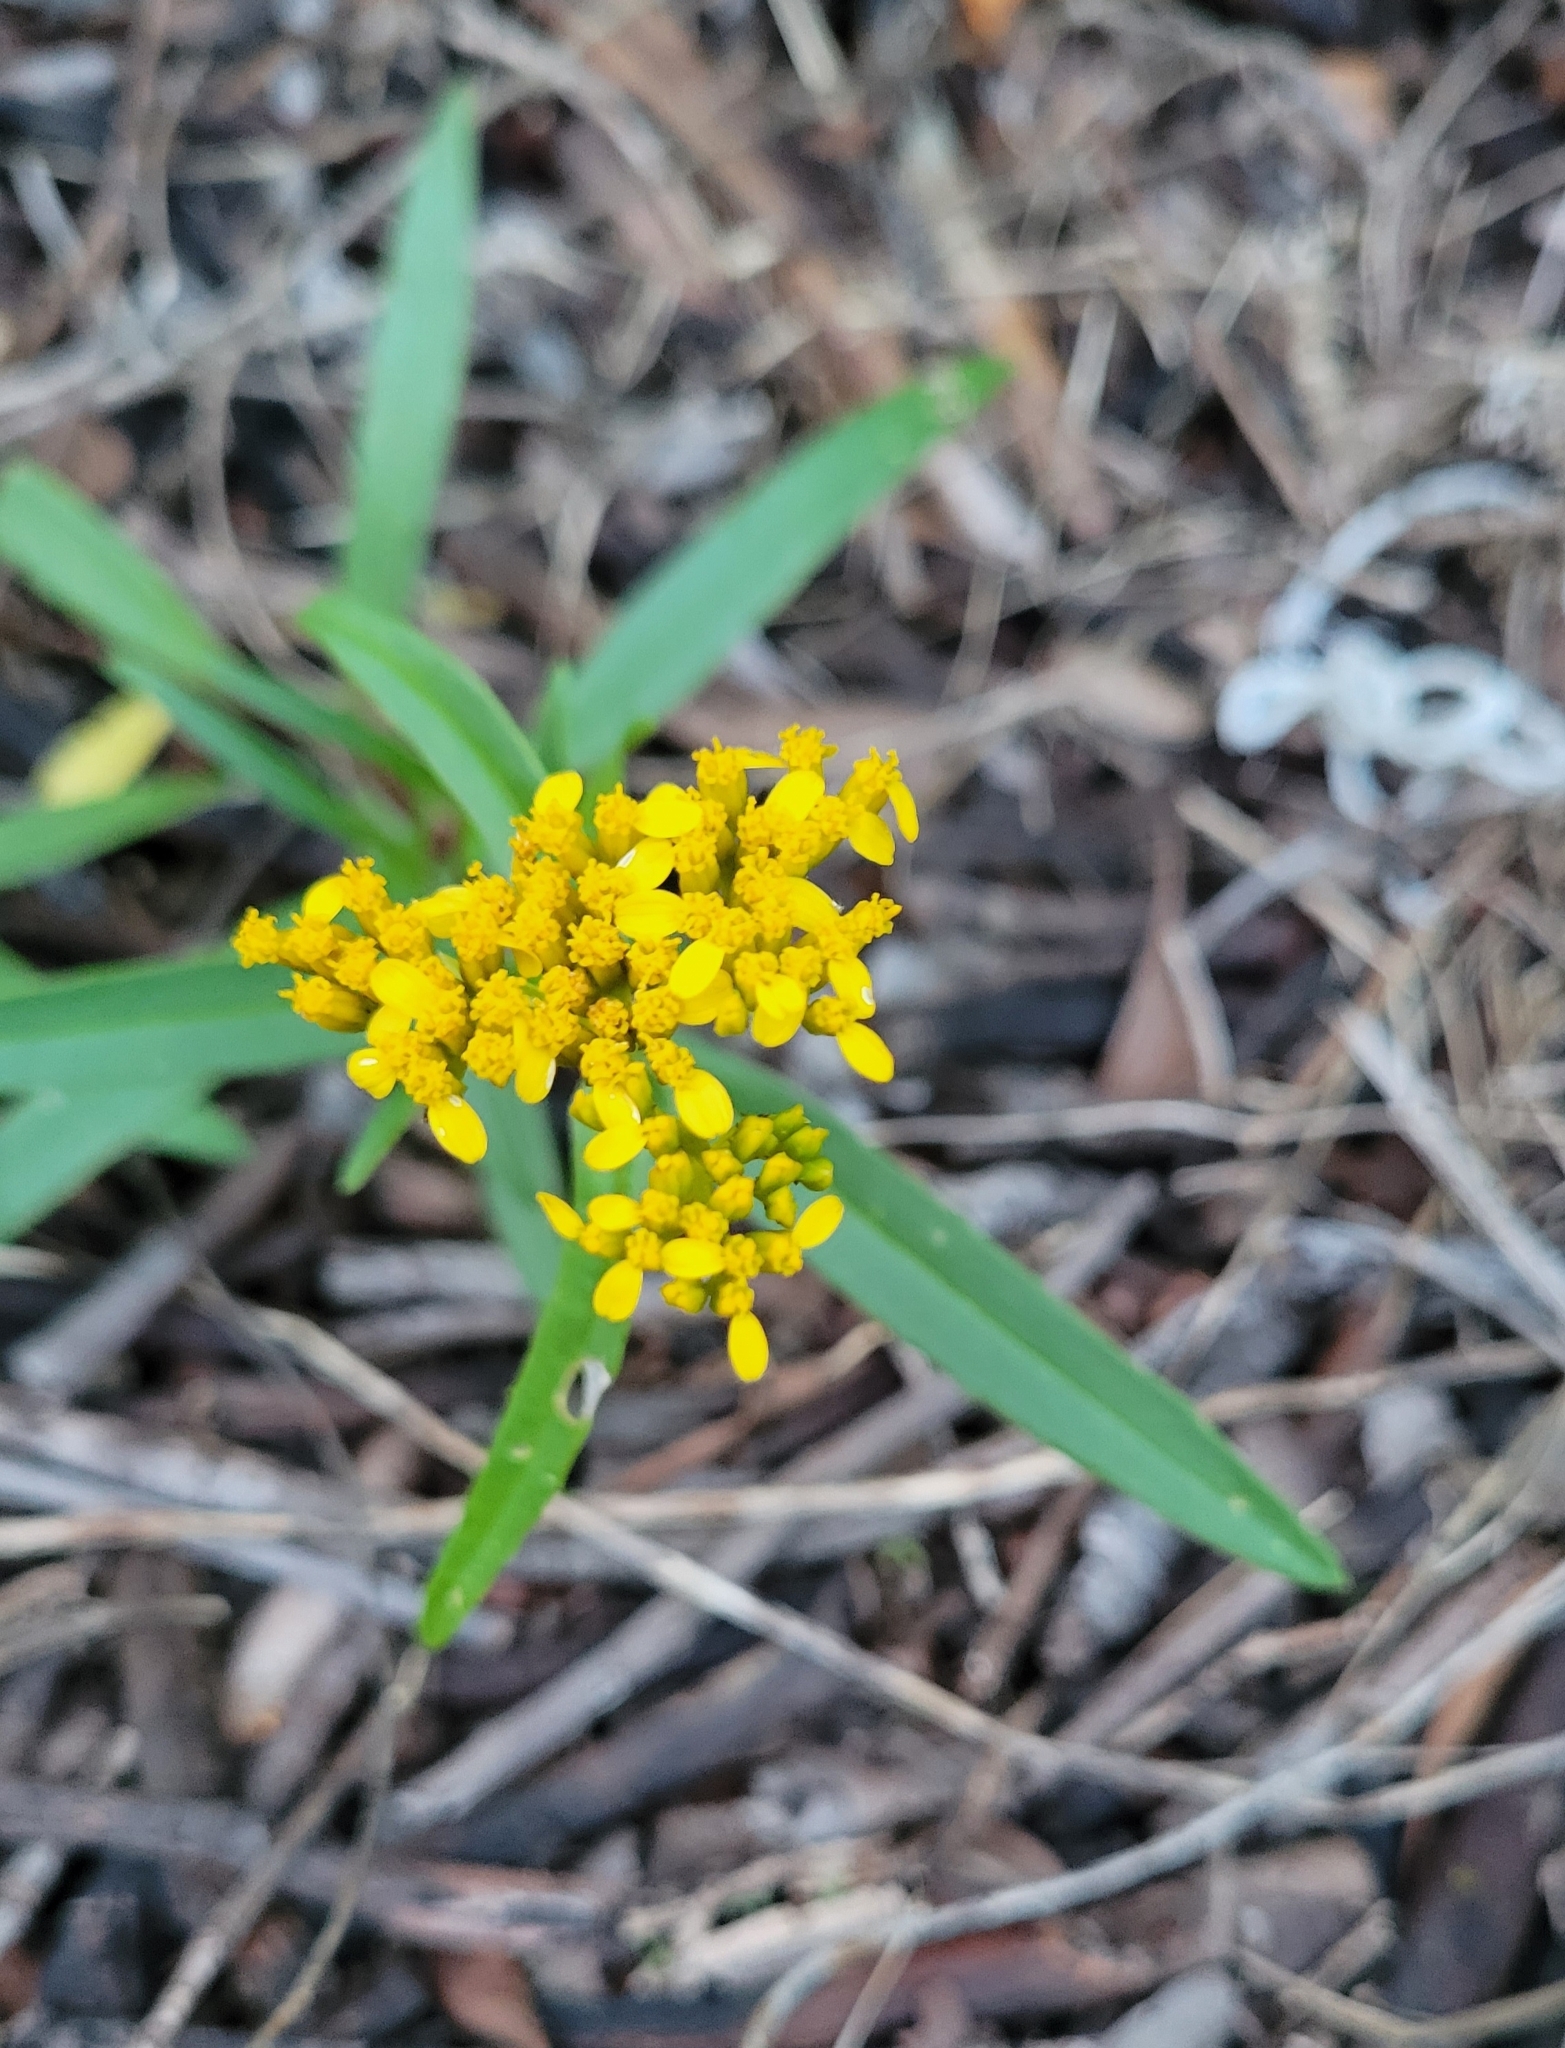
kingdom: Plantae
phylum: Tracheophyta
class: Magnoliopsida
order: Asterales
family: Asteraceae
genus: Flaveria
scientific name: Flaveria linearis
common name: Yellowtop
